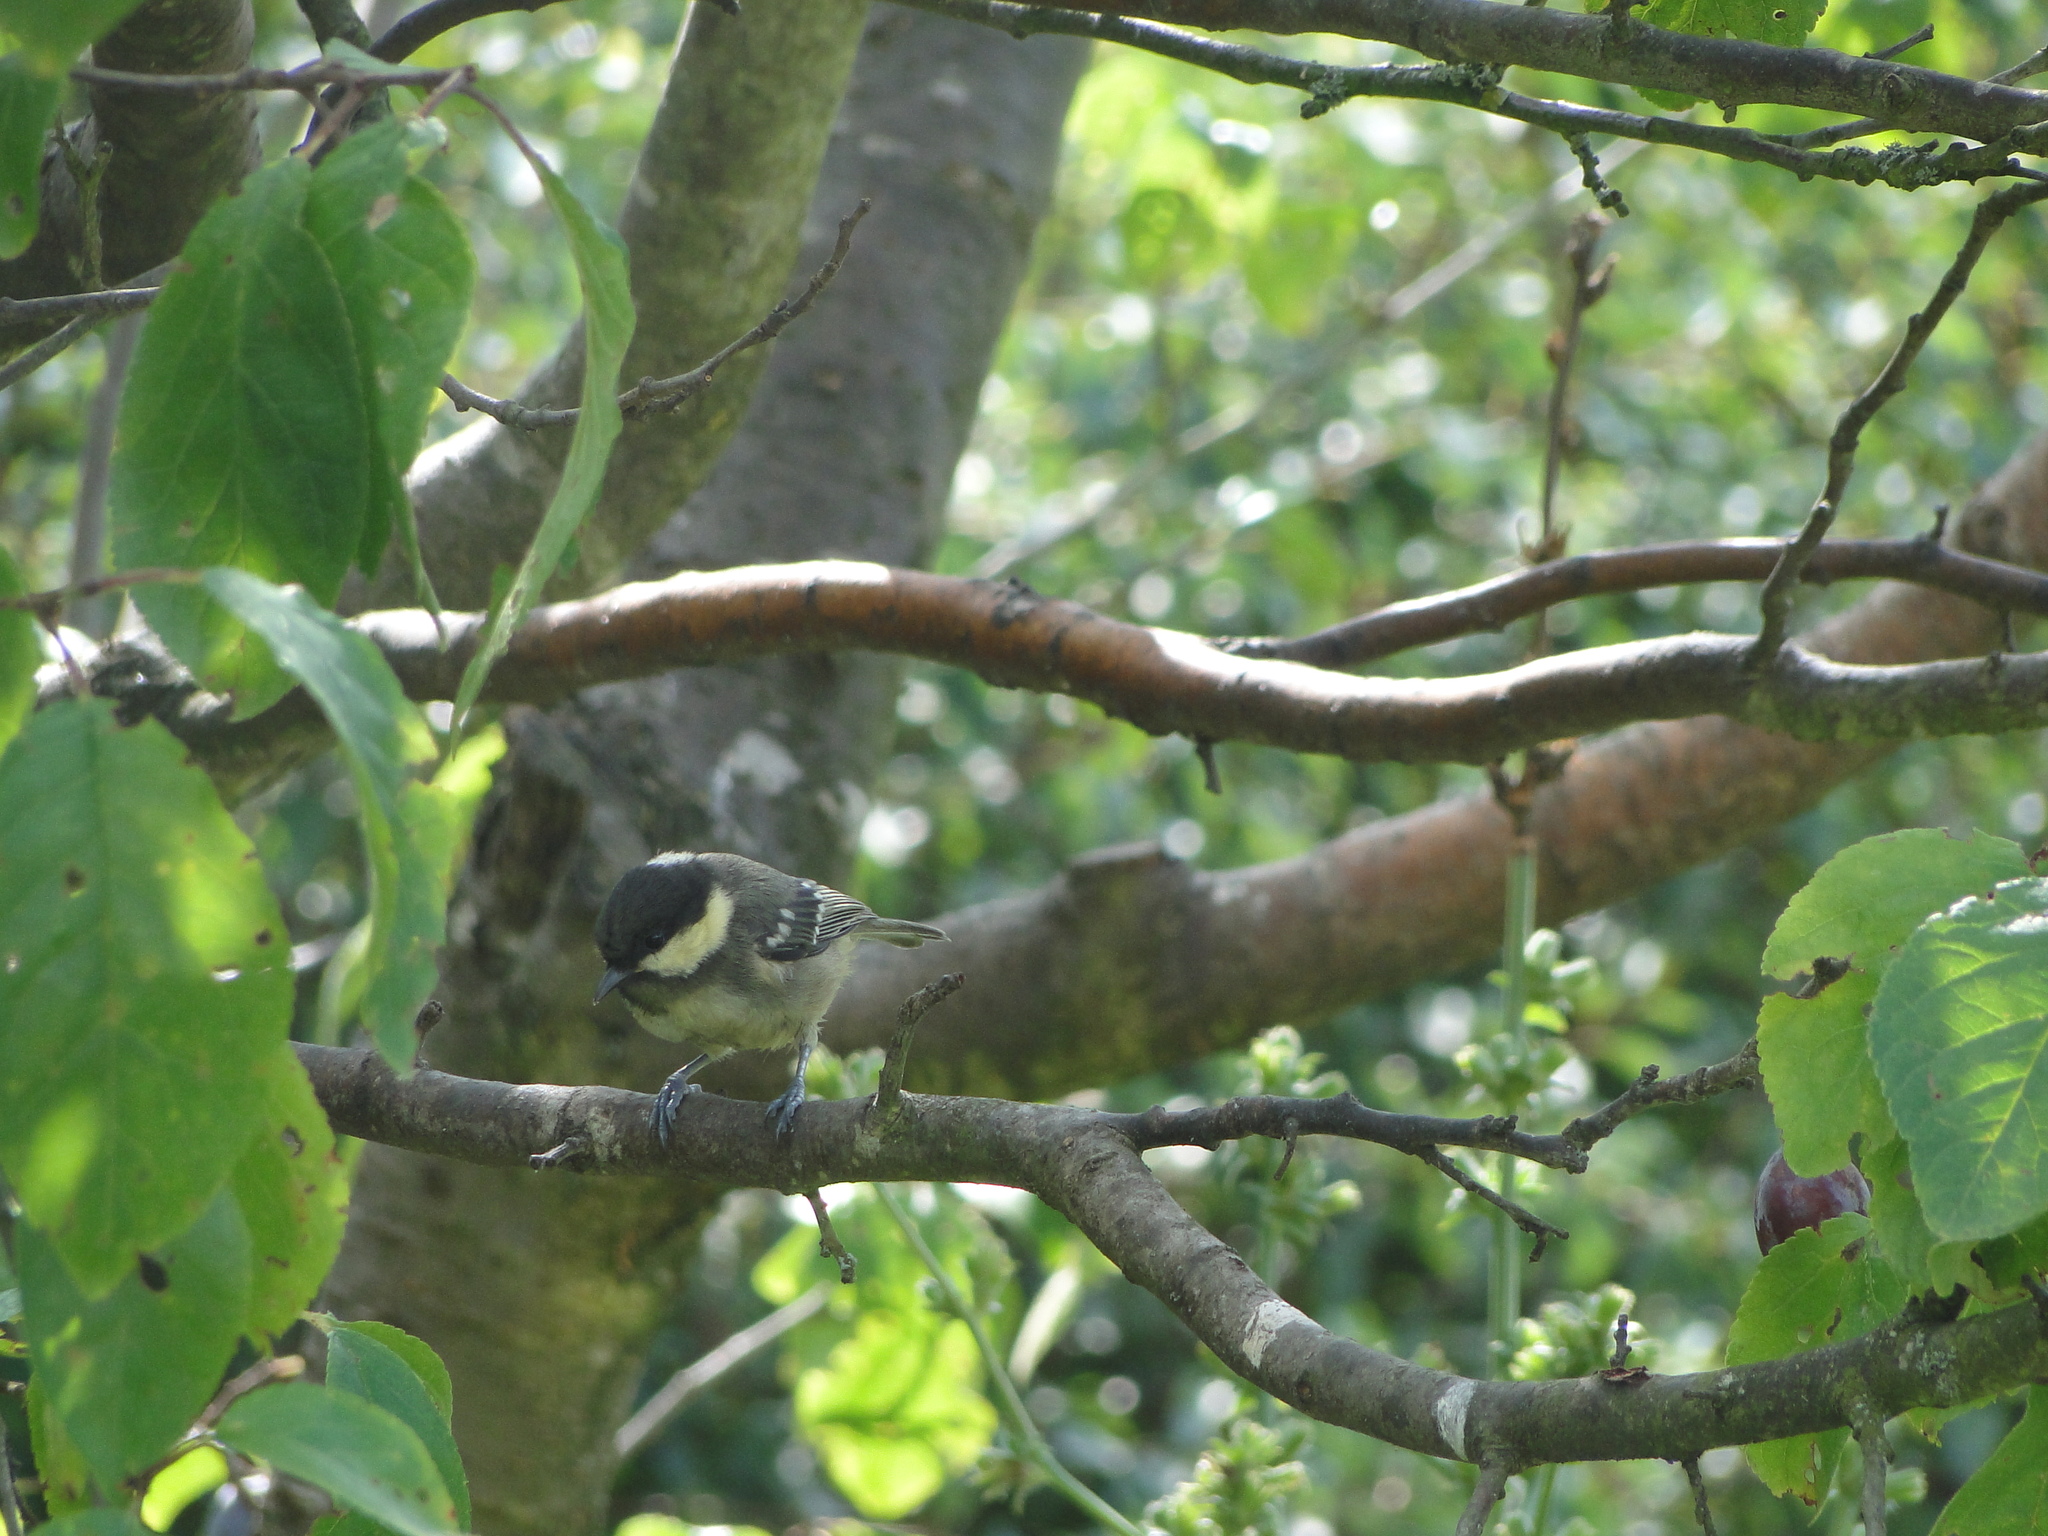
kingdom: Animalia
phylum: Chordata
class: Aves
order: Passeriformes
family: Paridae
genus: Periparus
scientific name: Periparus ater
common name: Coal tit
